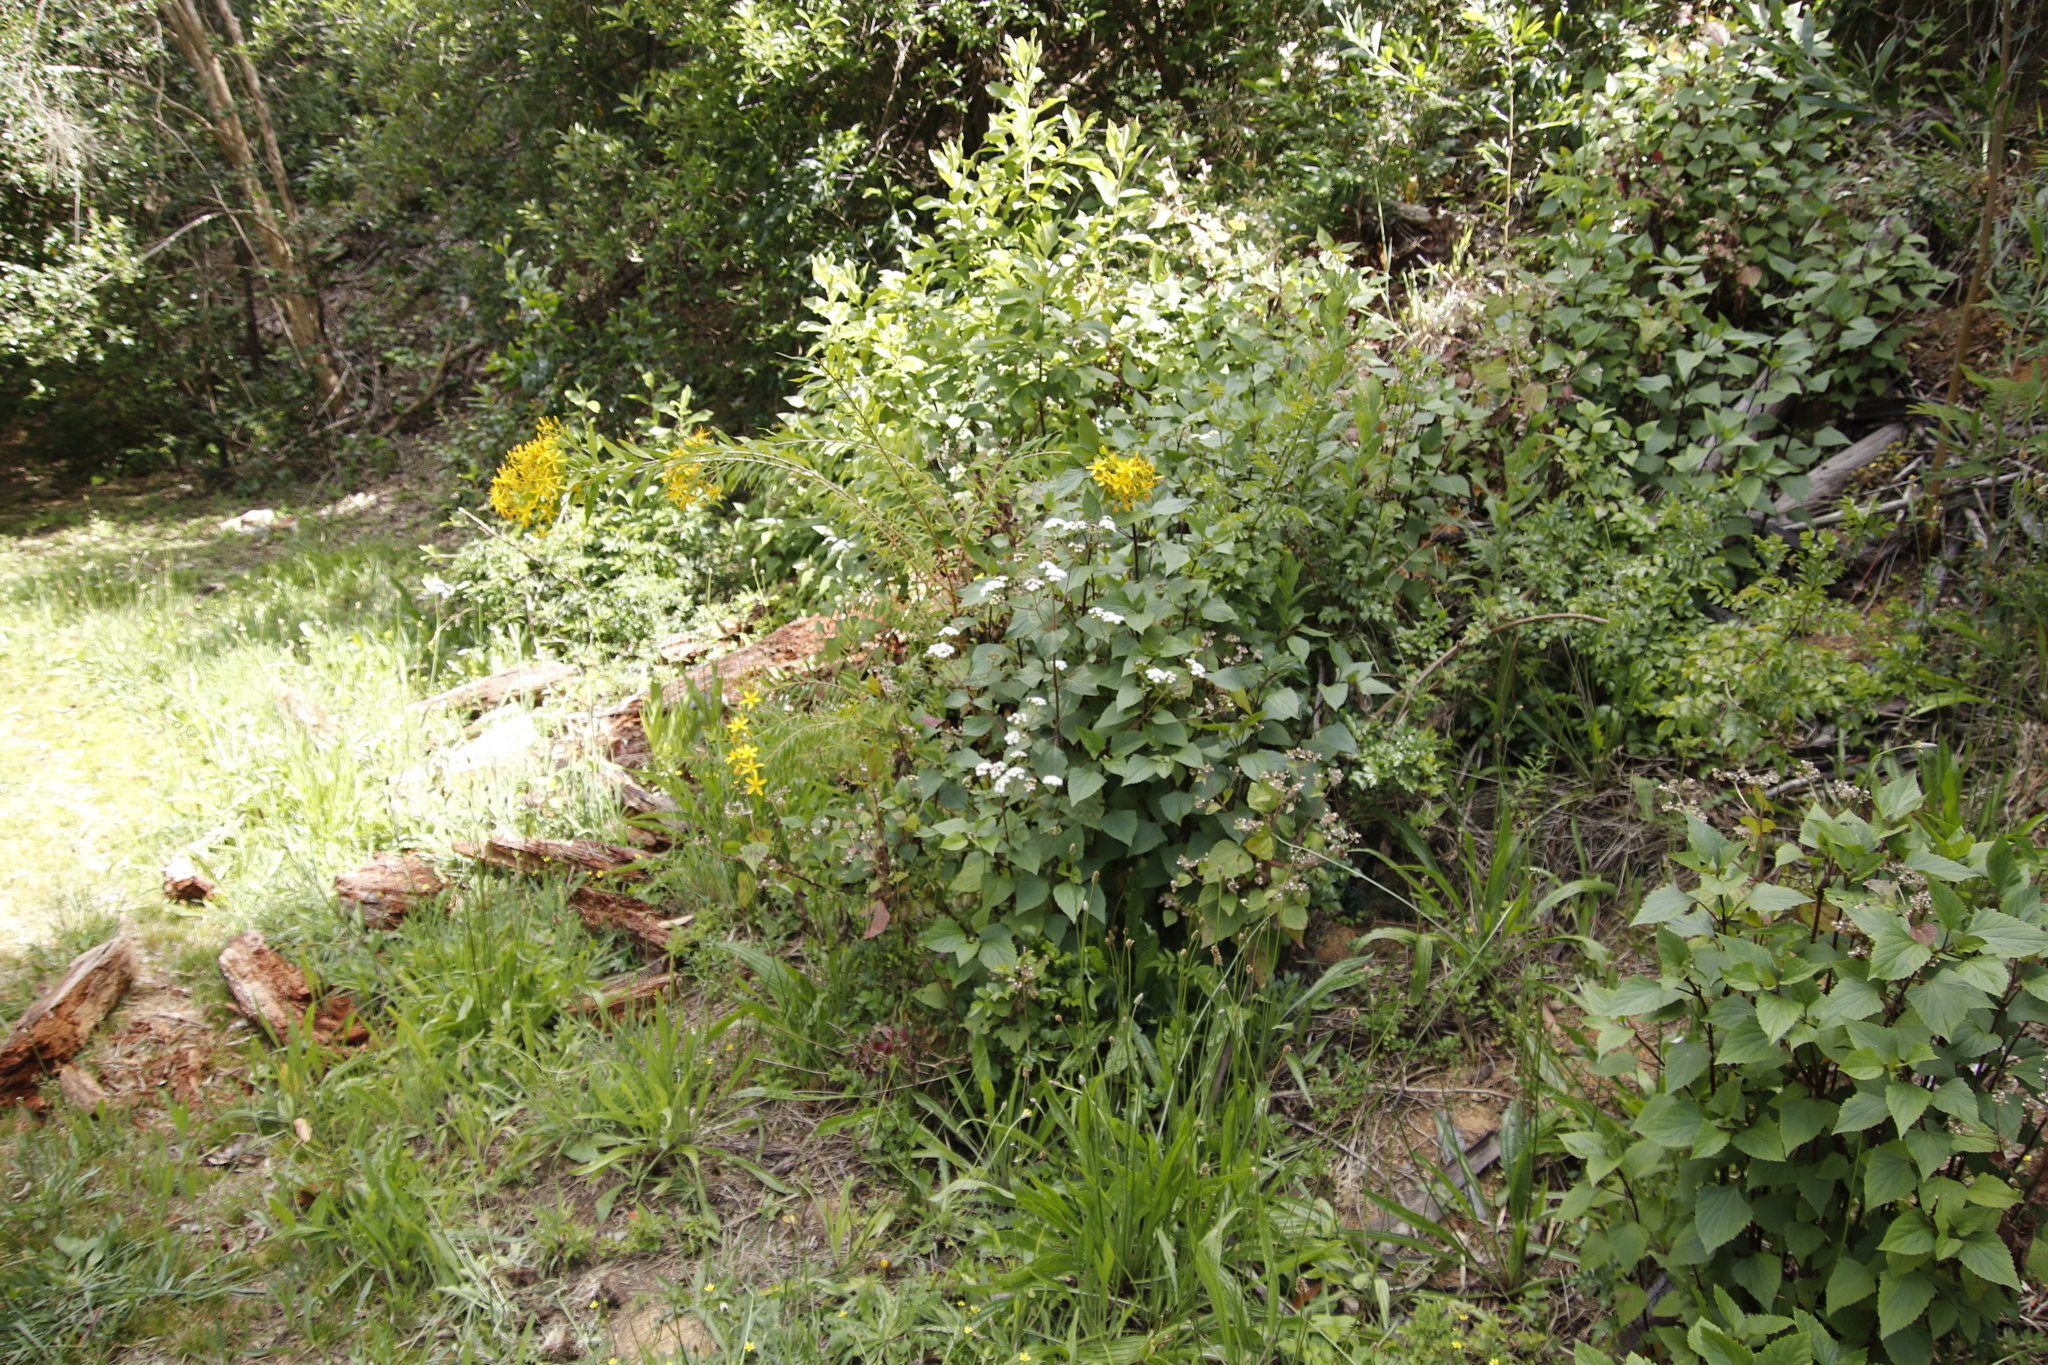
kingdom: Plantae
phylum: Tracheophyta
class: Magnoliopsida
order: Asterales
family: Asteraceae
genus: Ageratina
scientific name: Ageratina adenophora
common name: Sticky snakeroot
